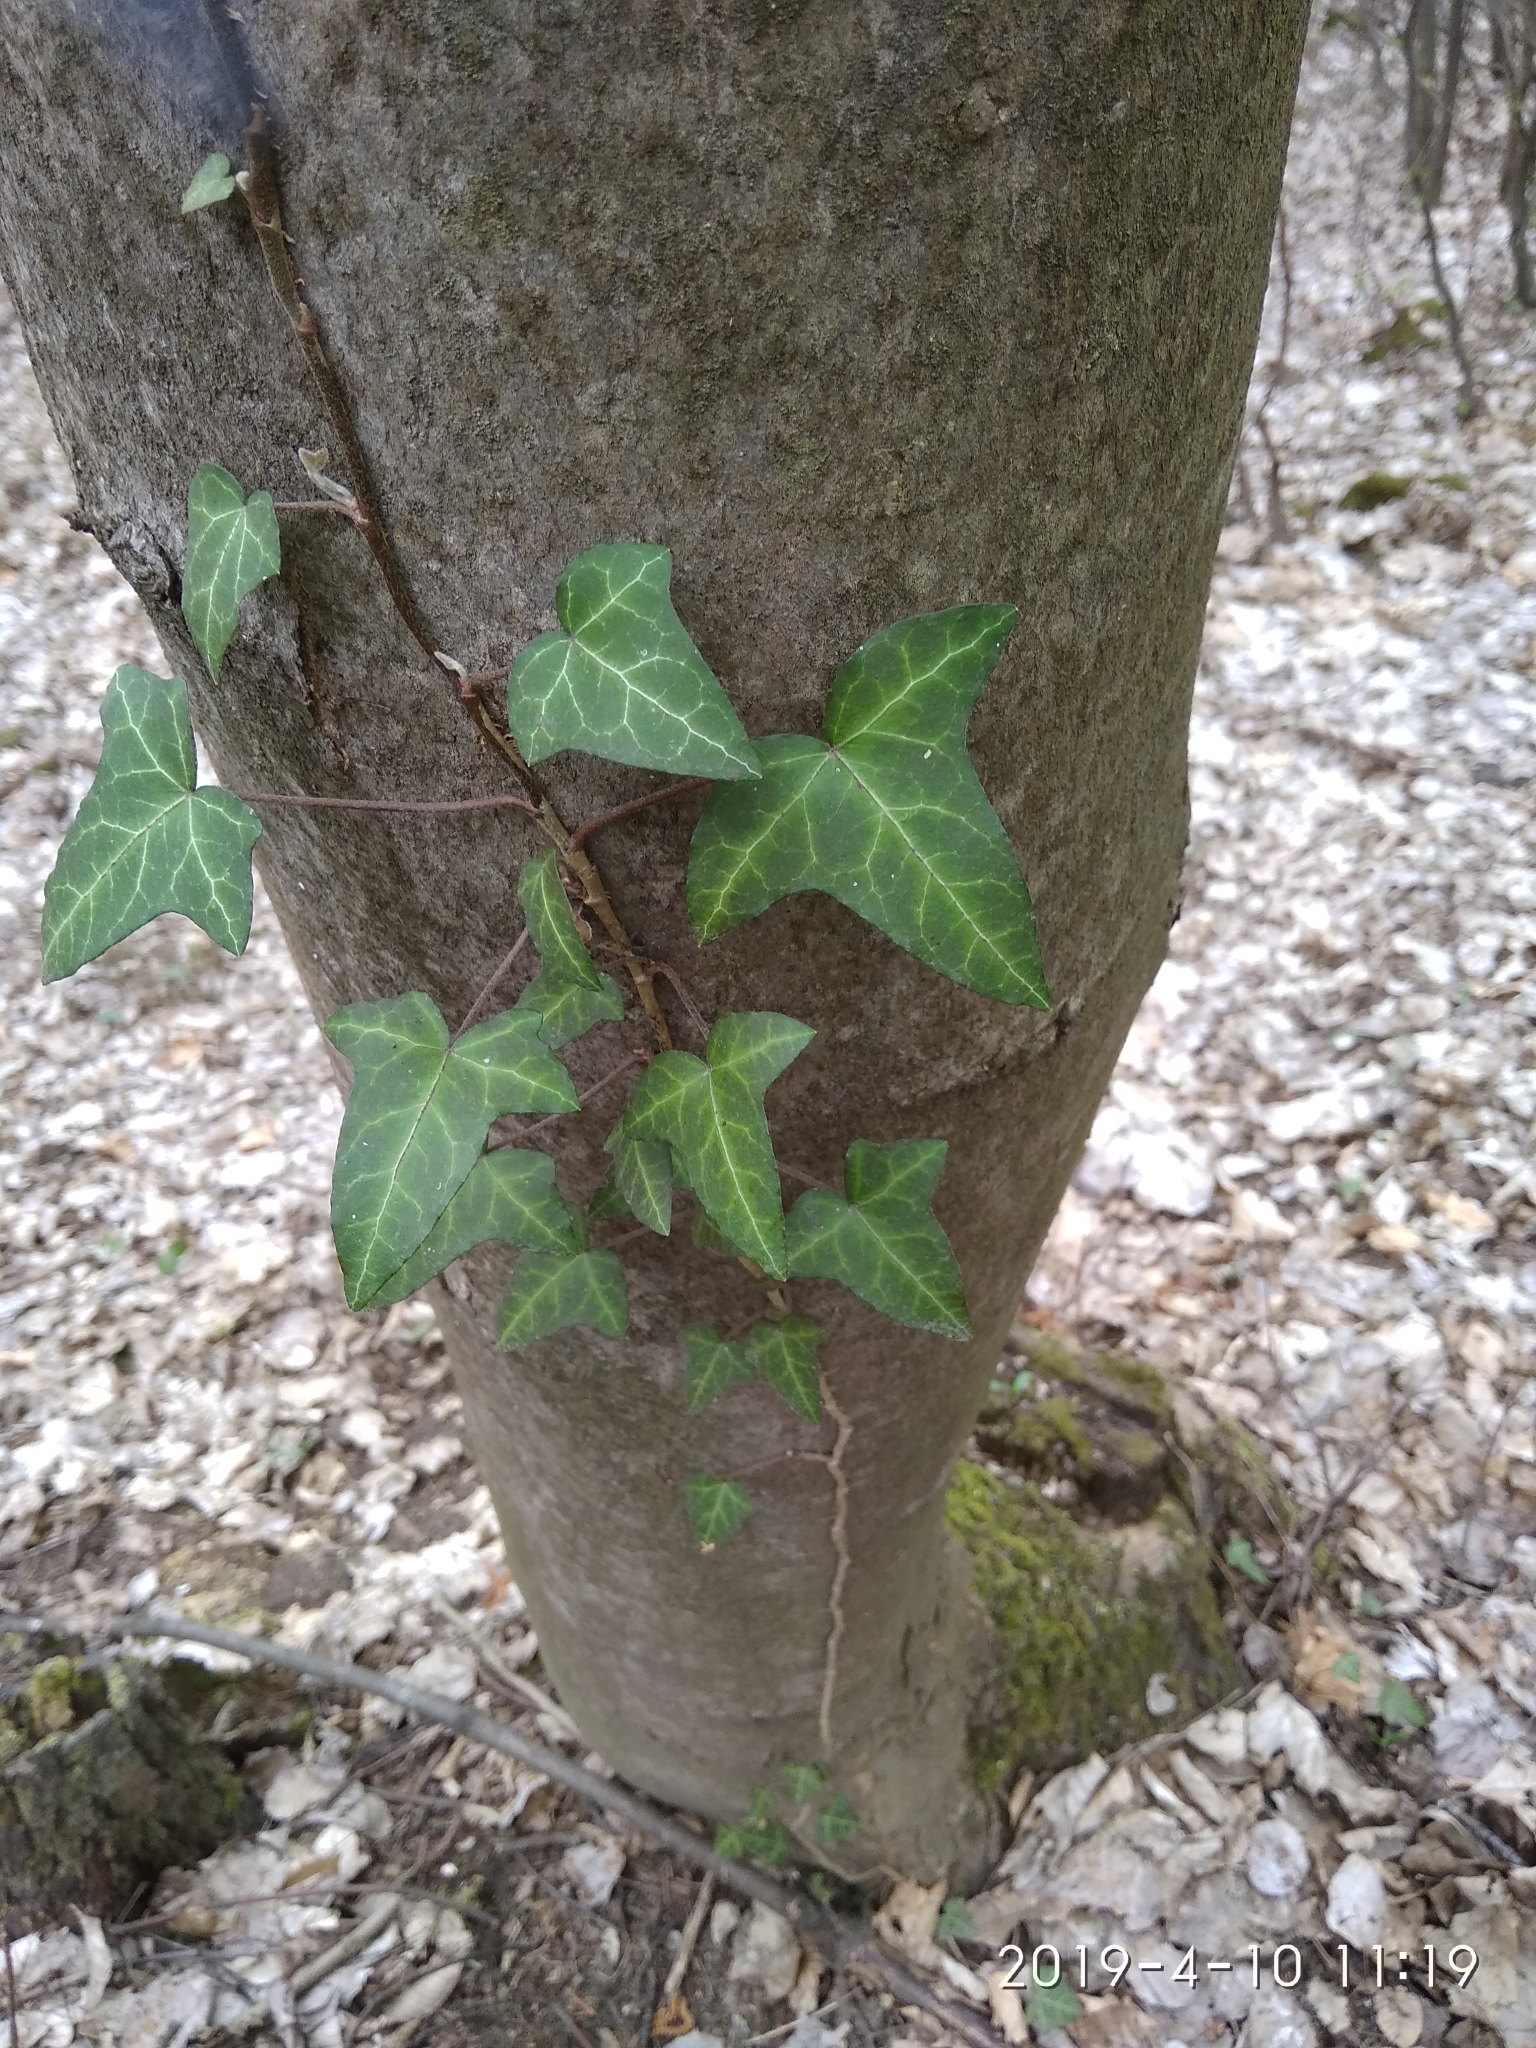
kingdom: Plantae
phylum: Tracheophyta
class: Magnoliopsida
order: Apiales
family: Araliaceae
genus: Hedera
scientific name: Hedera helix
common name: Ivy
